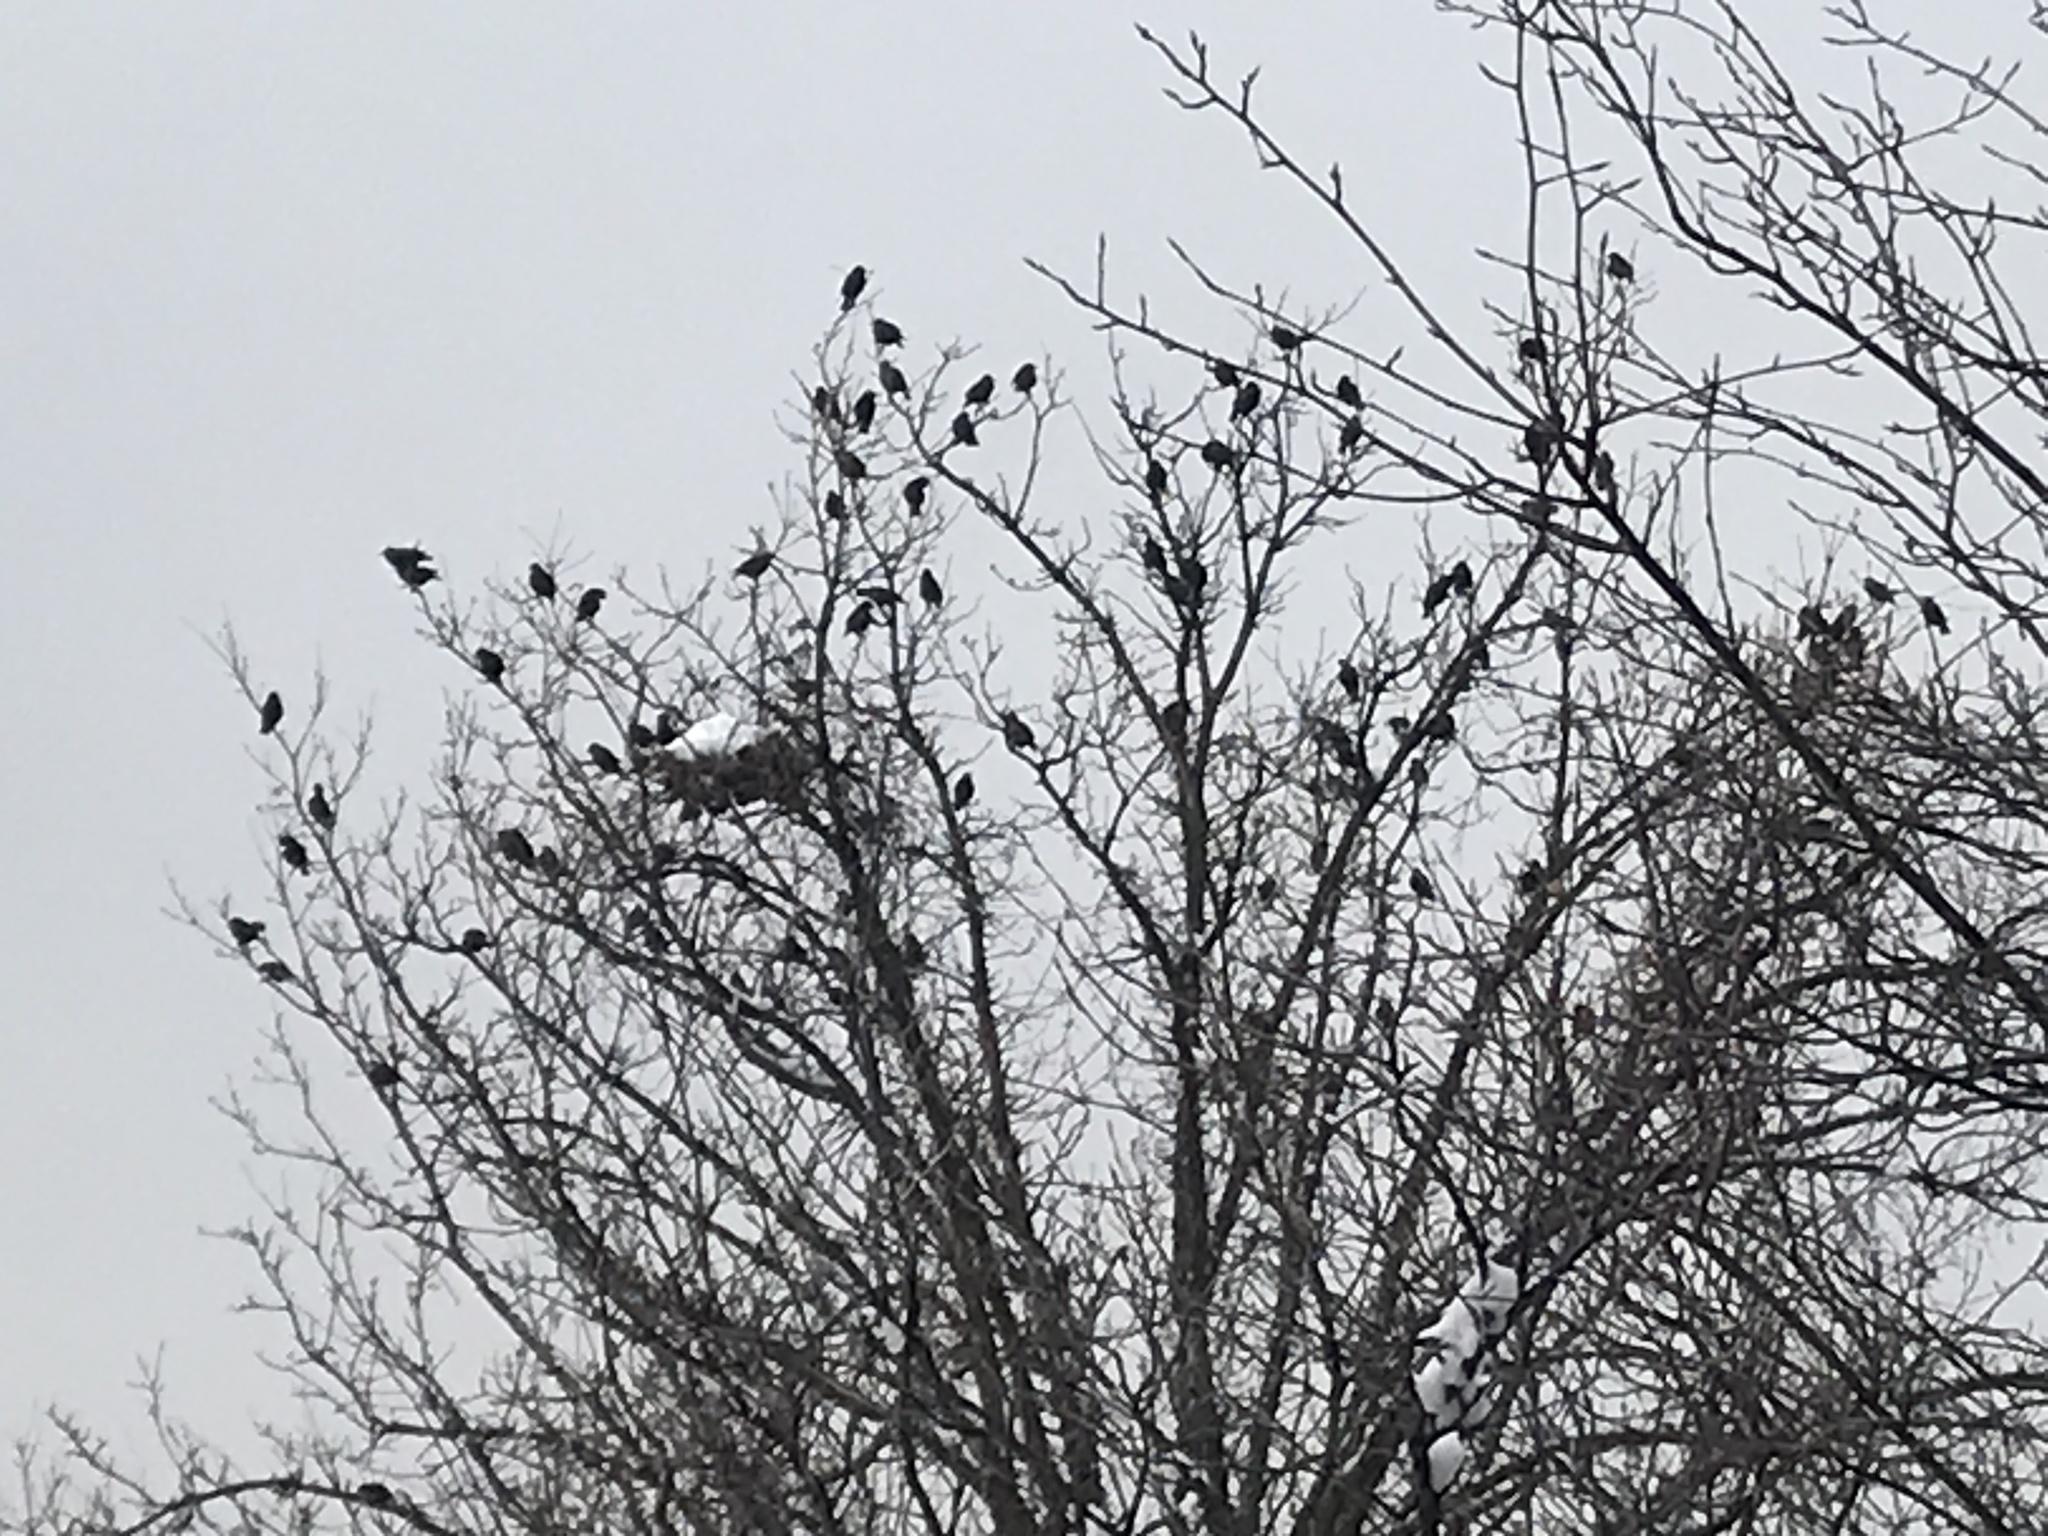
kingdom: Animalia
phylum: Chordata
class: Aves
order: Passeriformes
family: Sturnidae
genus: Sturnus
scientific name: Sturnus vulgaris
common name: Common starling
